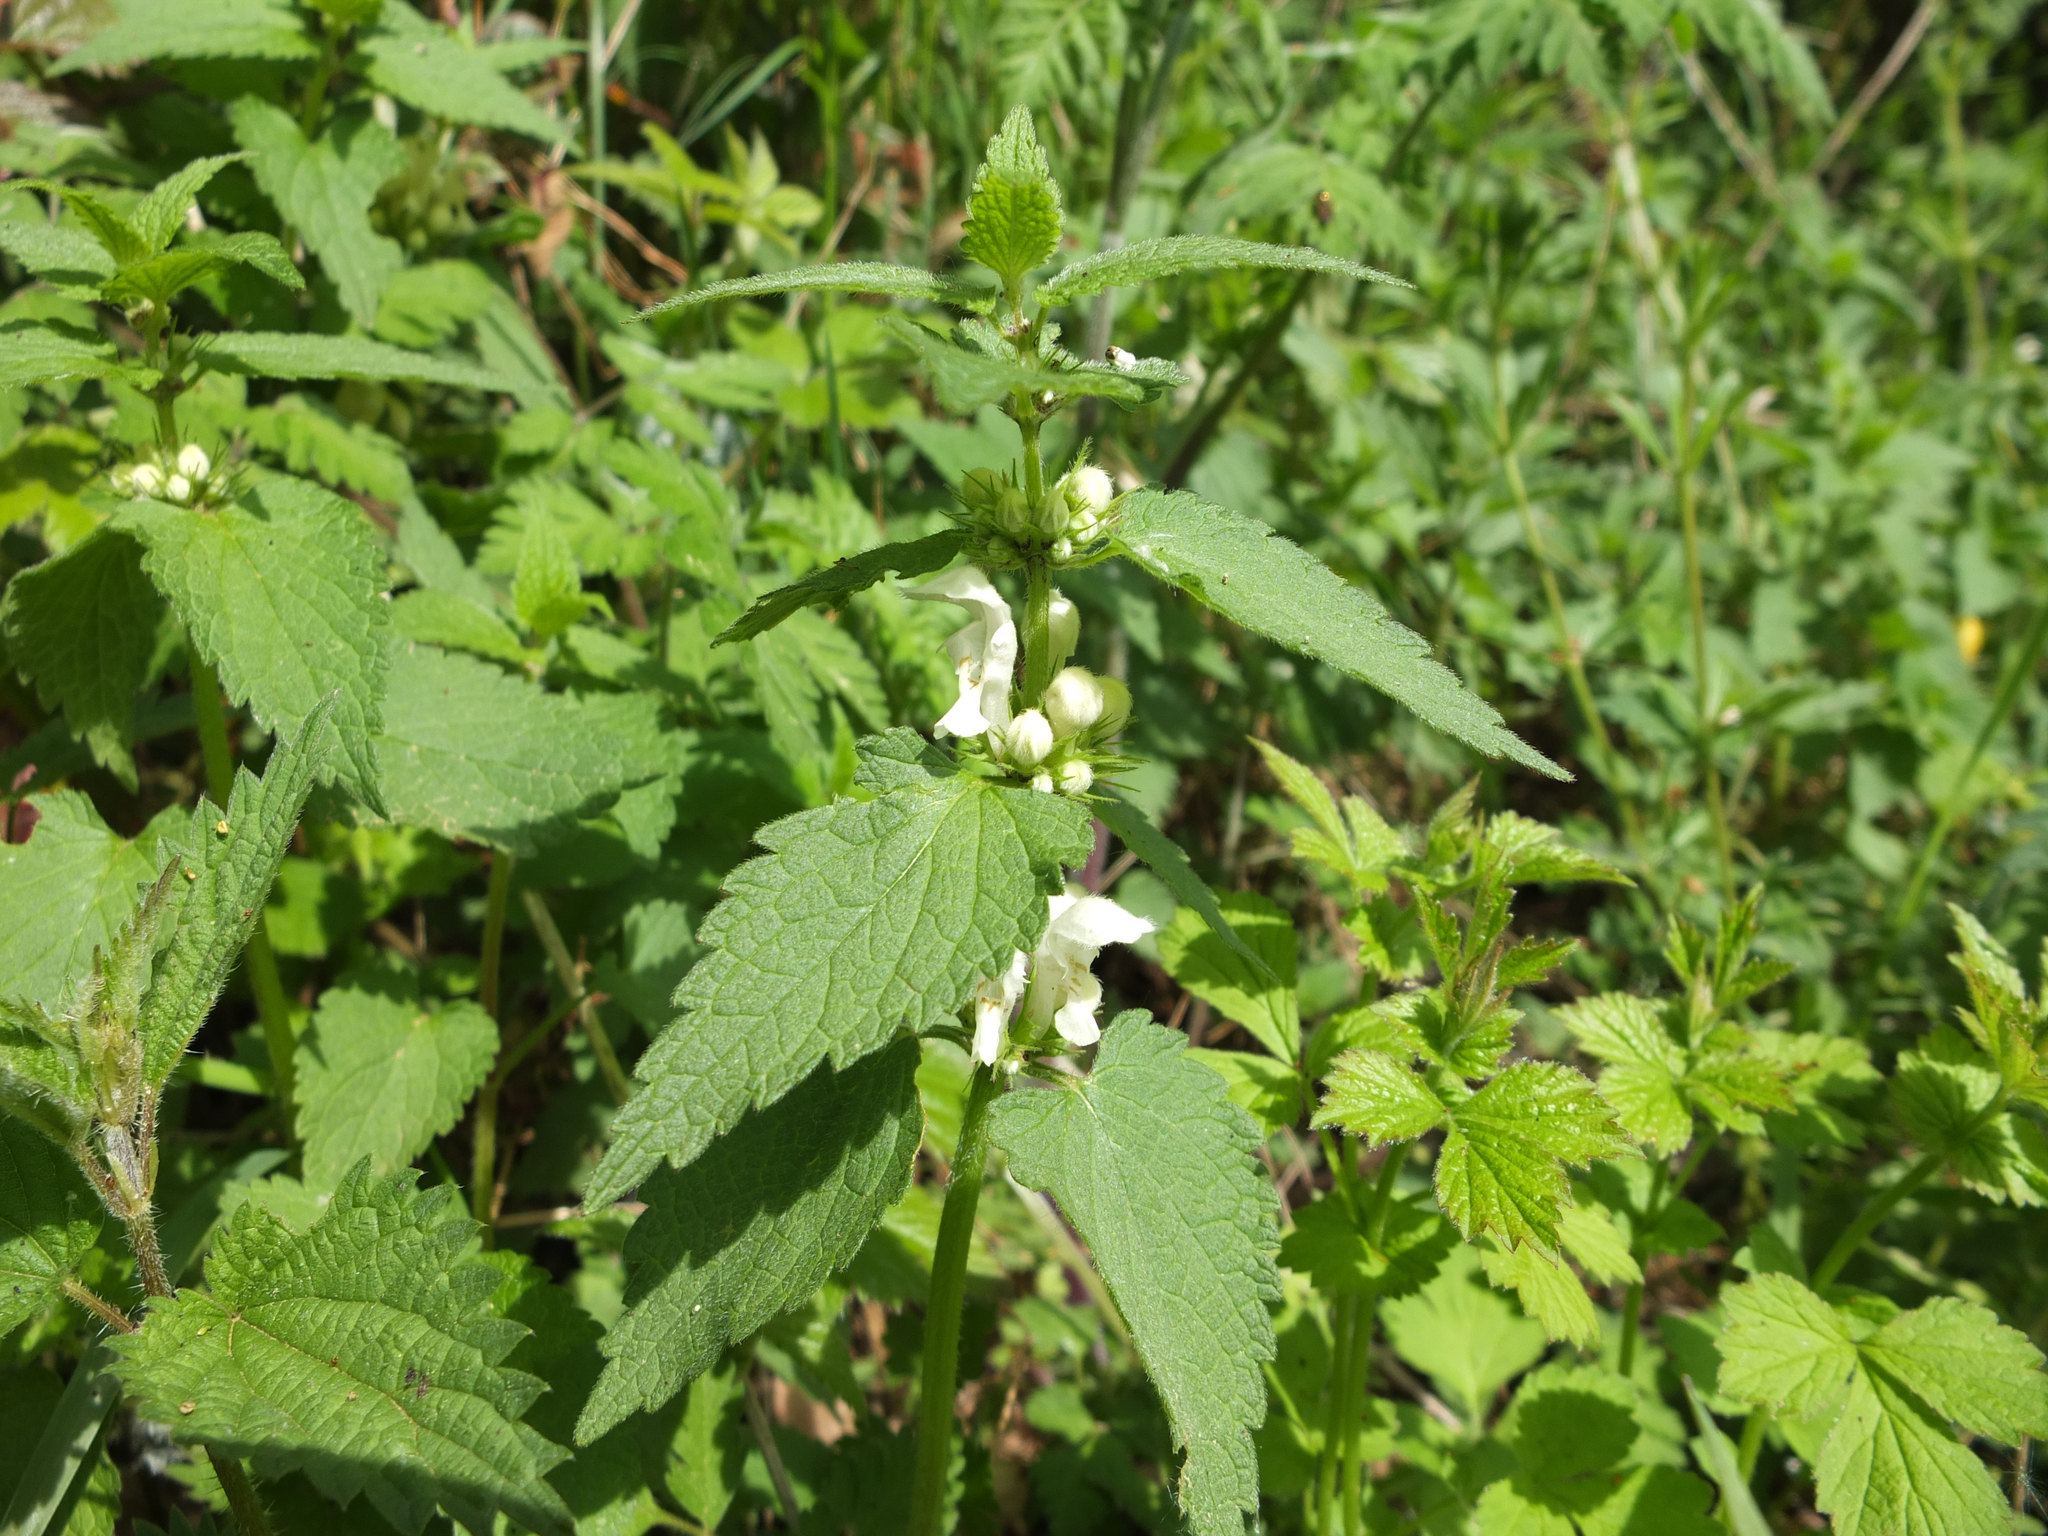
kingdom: Plantae
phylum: Tracheophyta
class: Magnoliopsida
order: Lamiales
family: Lamiaceae
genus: Lamium
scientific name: Lamium album
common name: White dead-nettle
